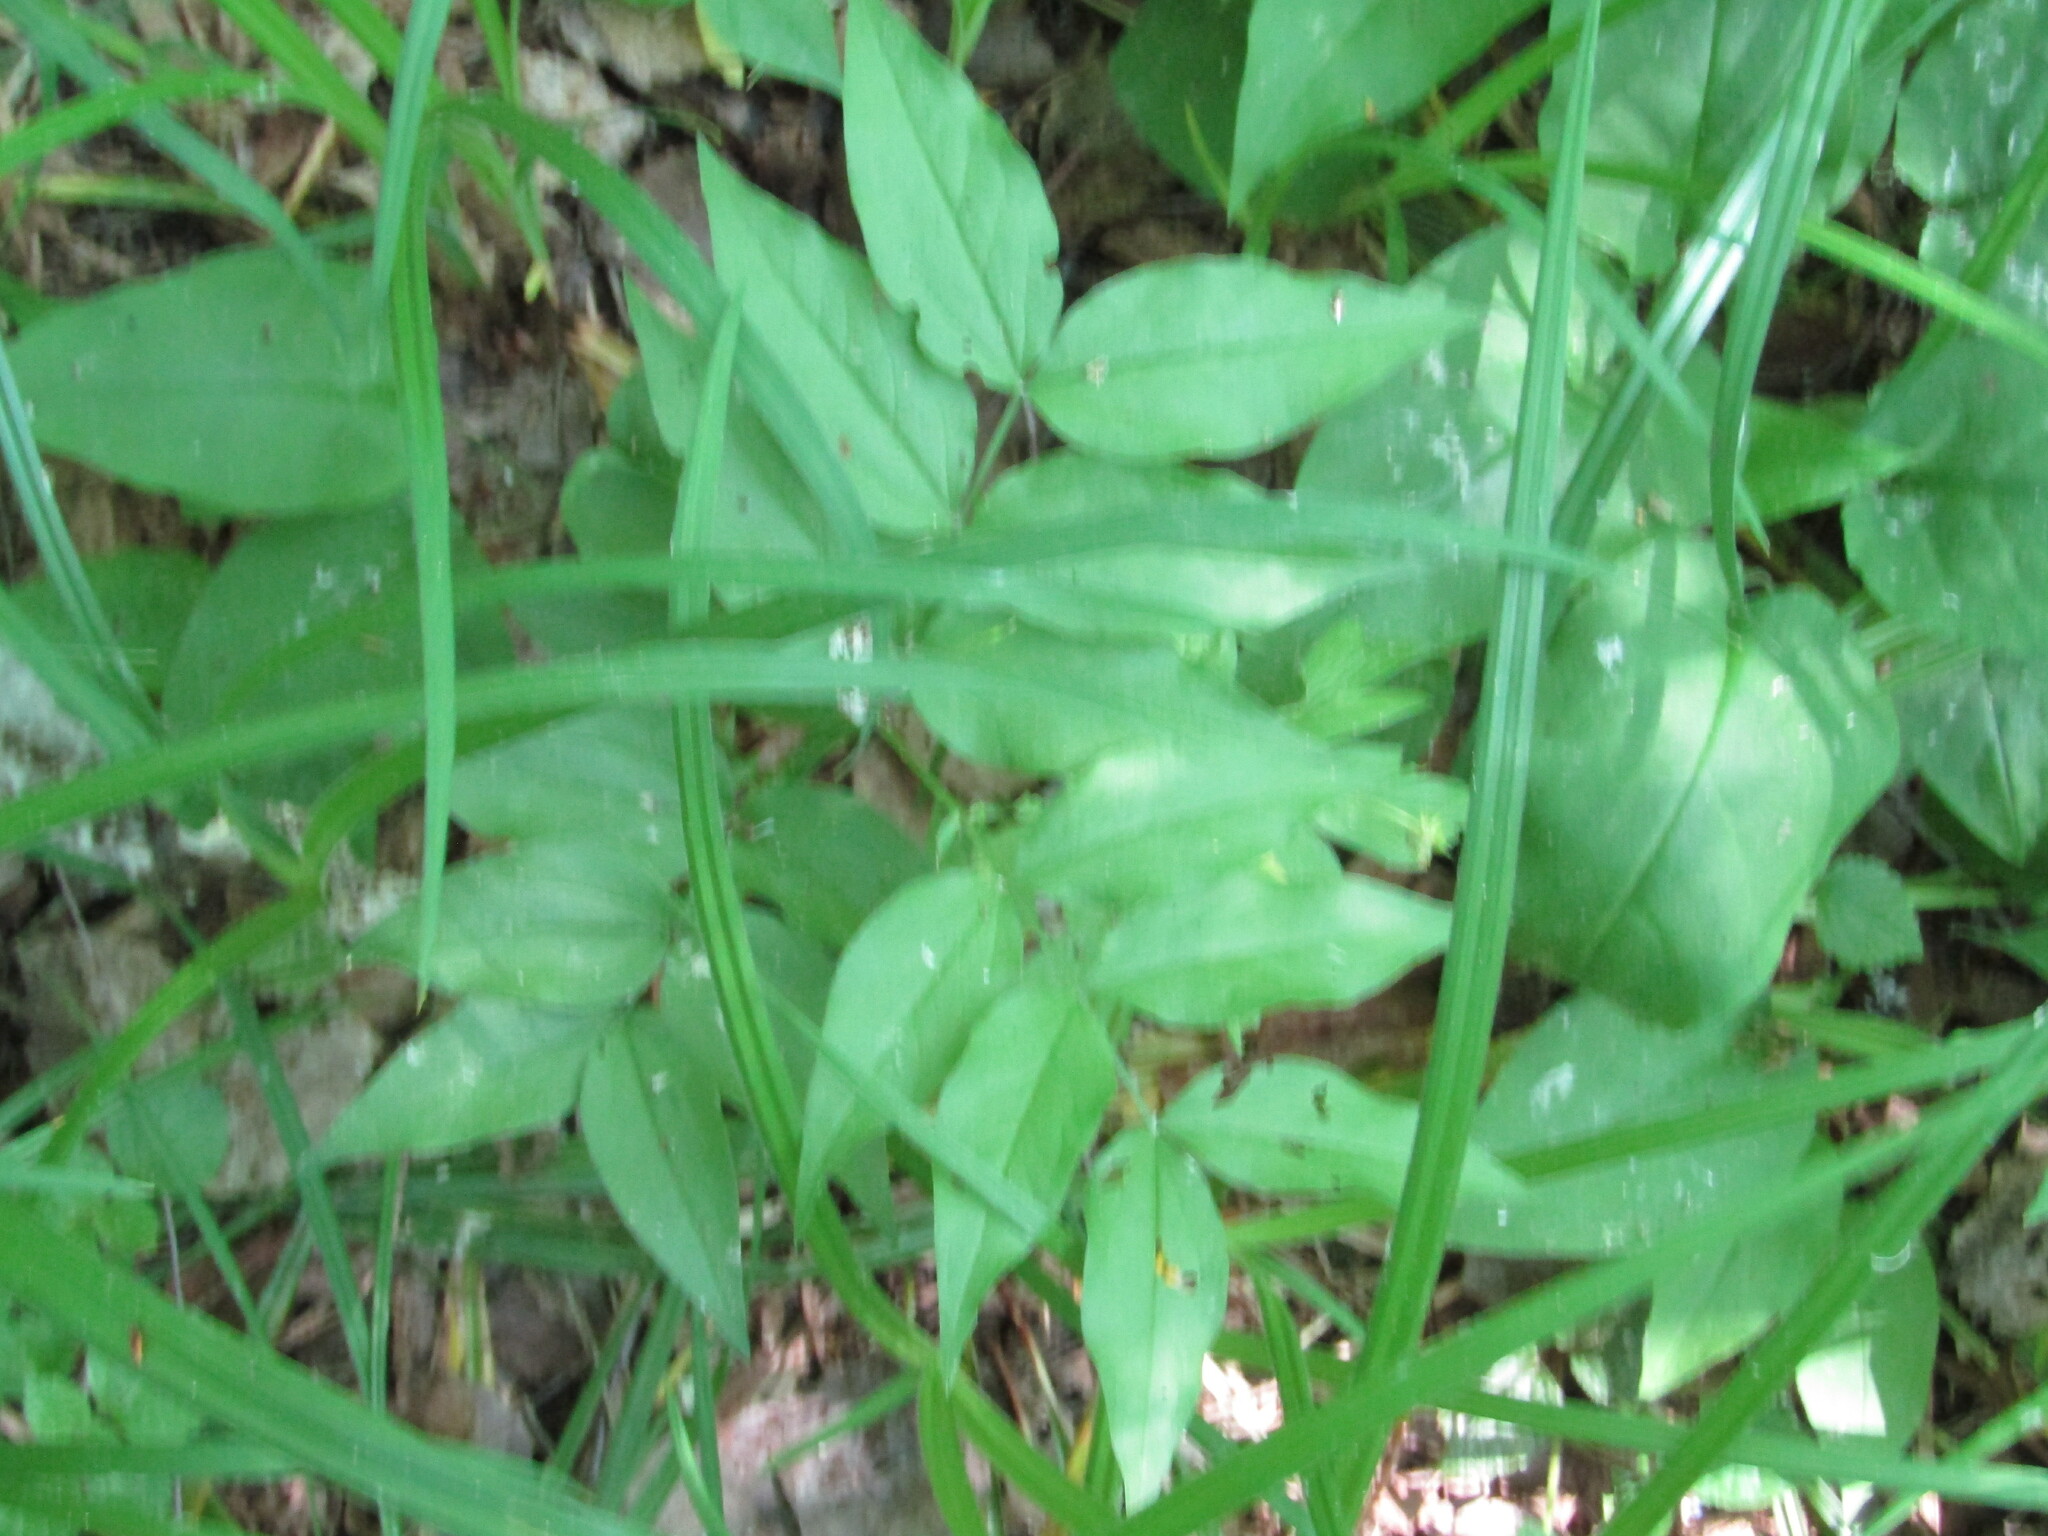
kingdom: Plantae
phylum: Tracheophyta
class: Magnoliopsida
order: Fabales
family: Fabaceae
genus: Lathyrus
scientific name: Lathyrus vernus
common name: Spring pea
